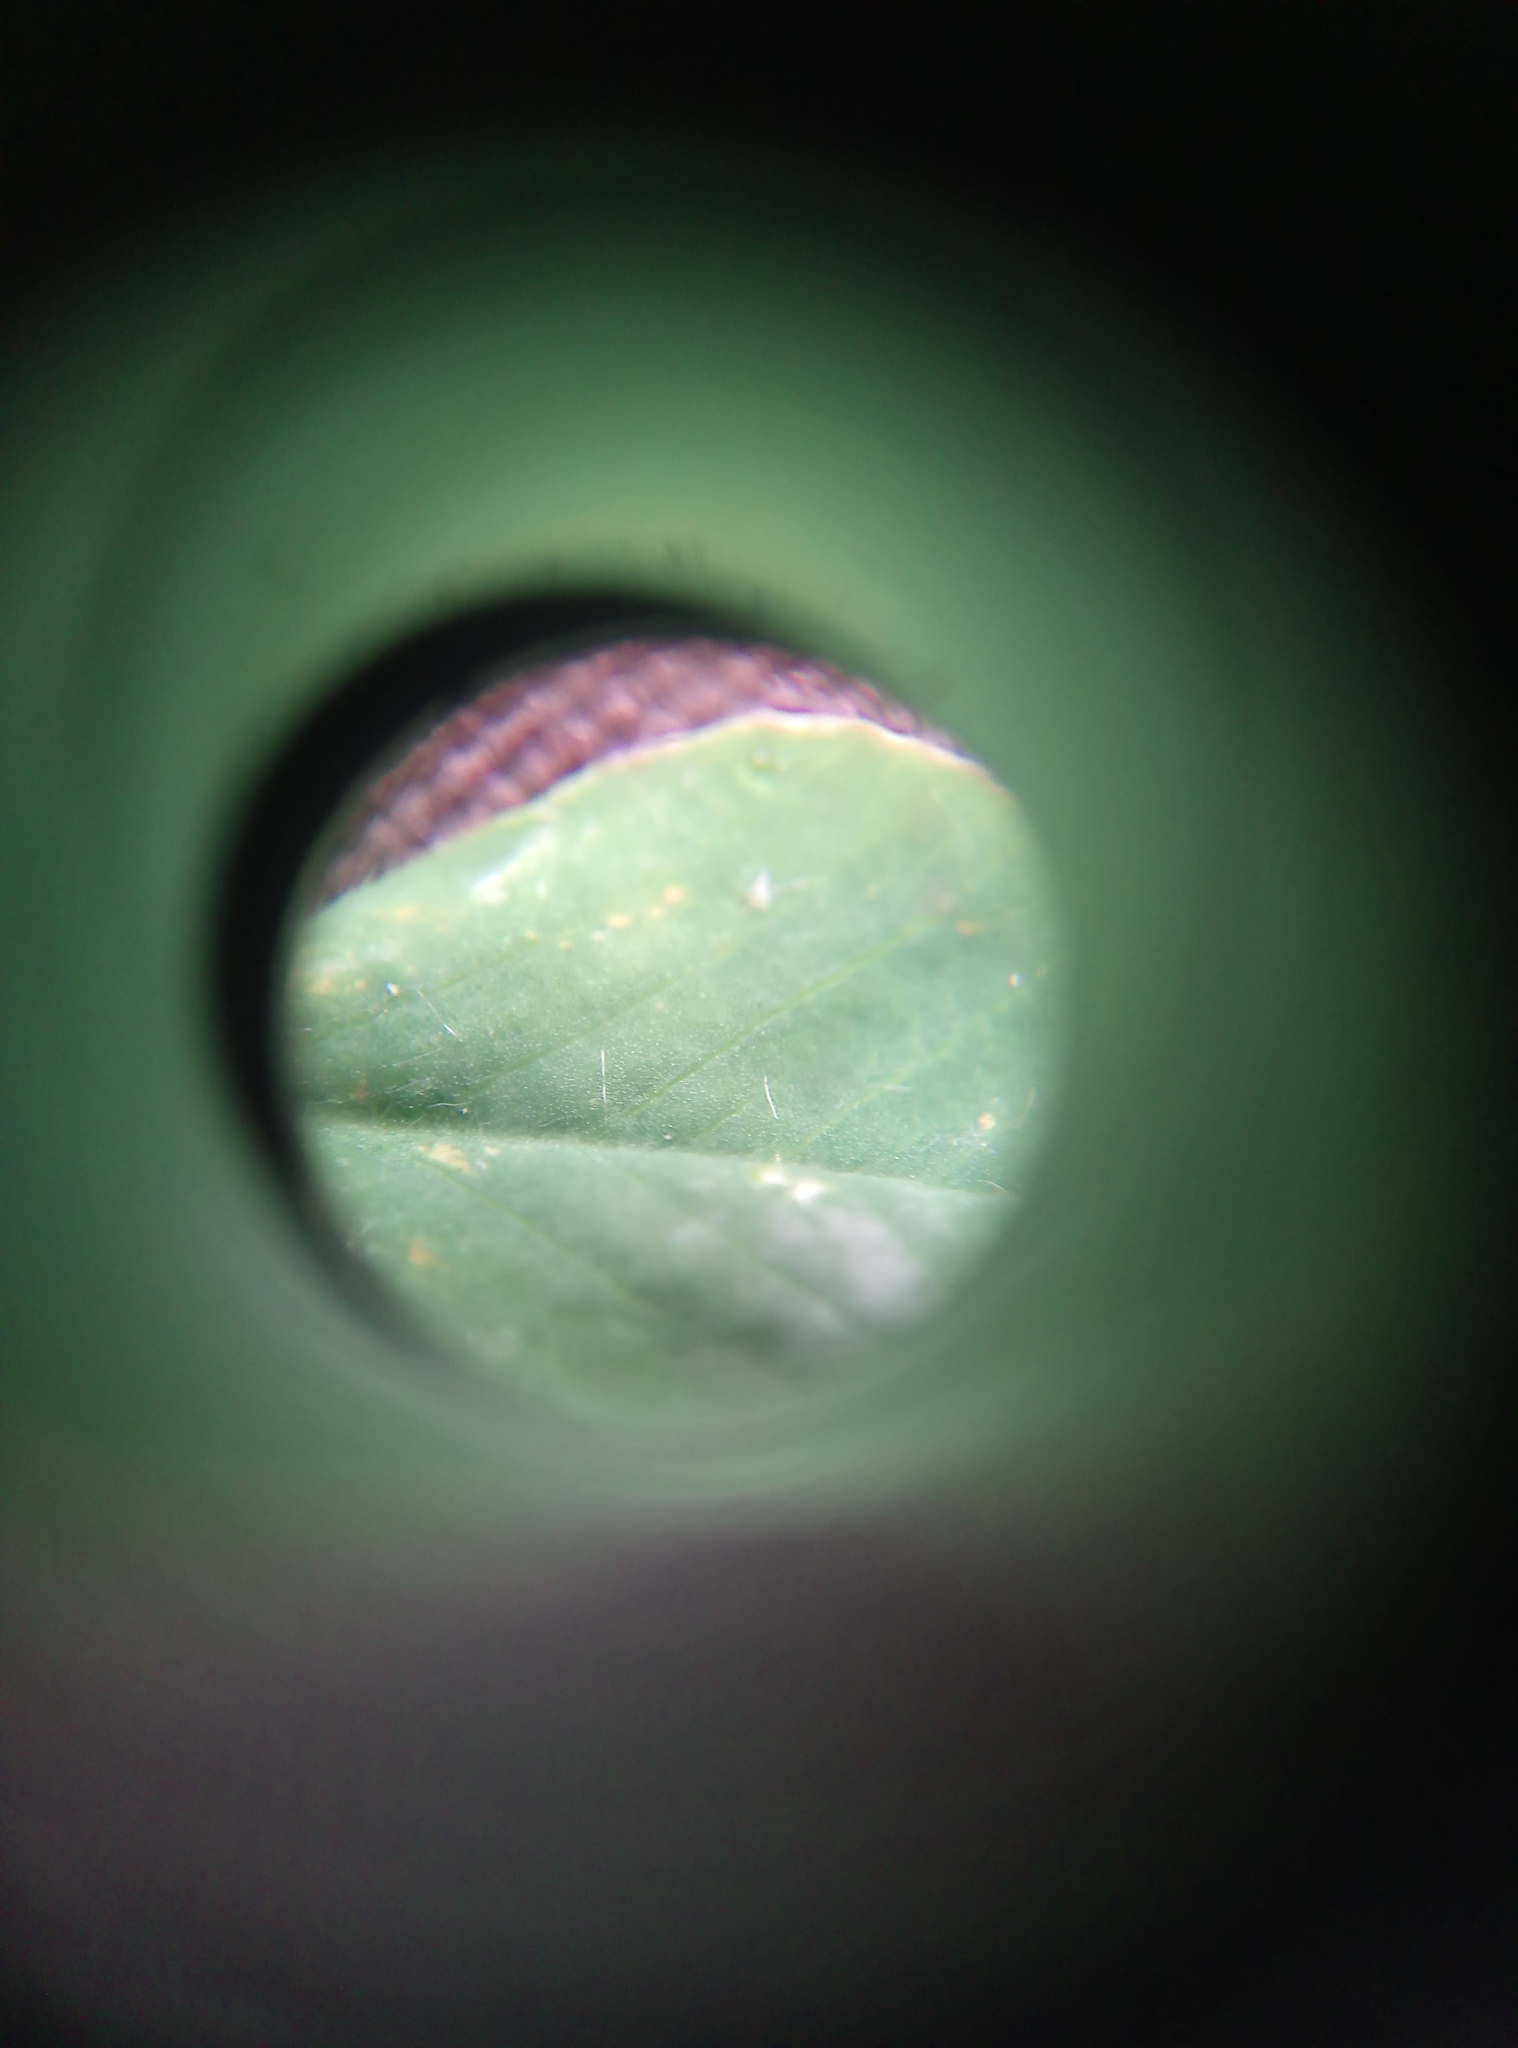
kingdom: Plantae
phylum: Tracheophyta
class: Magnoliopsida
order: Fabales
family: Fabaceae
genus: Medicago
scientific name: Medicago lupulina
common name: Black medick
